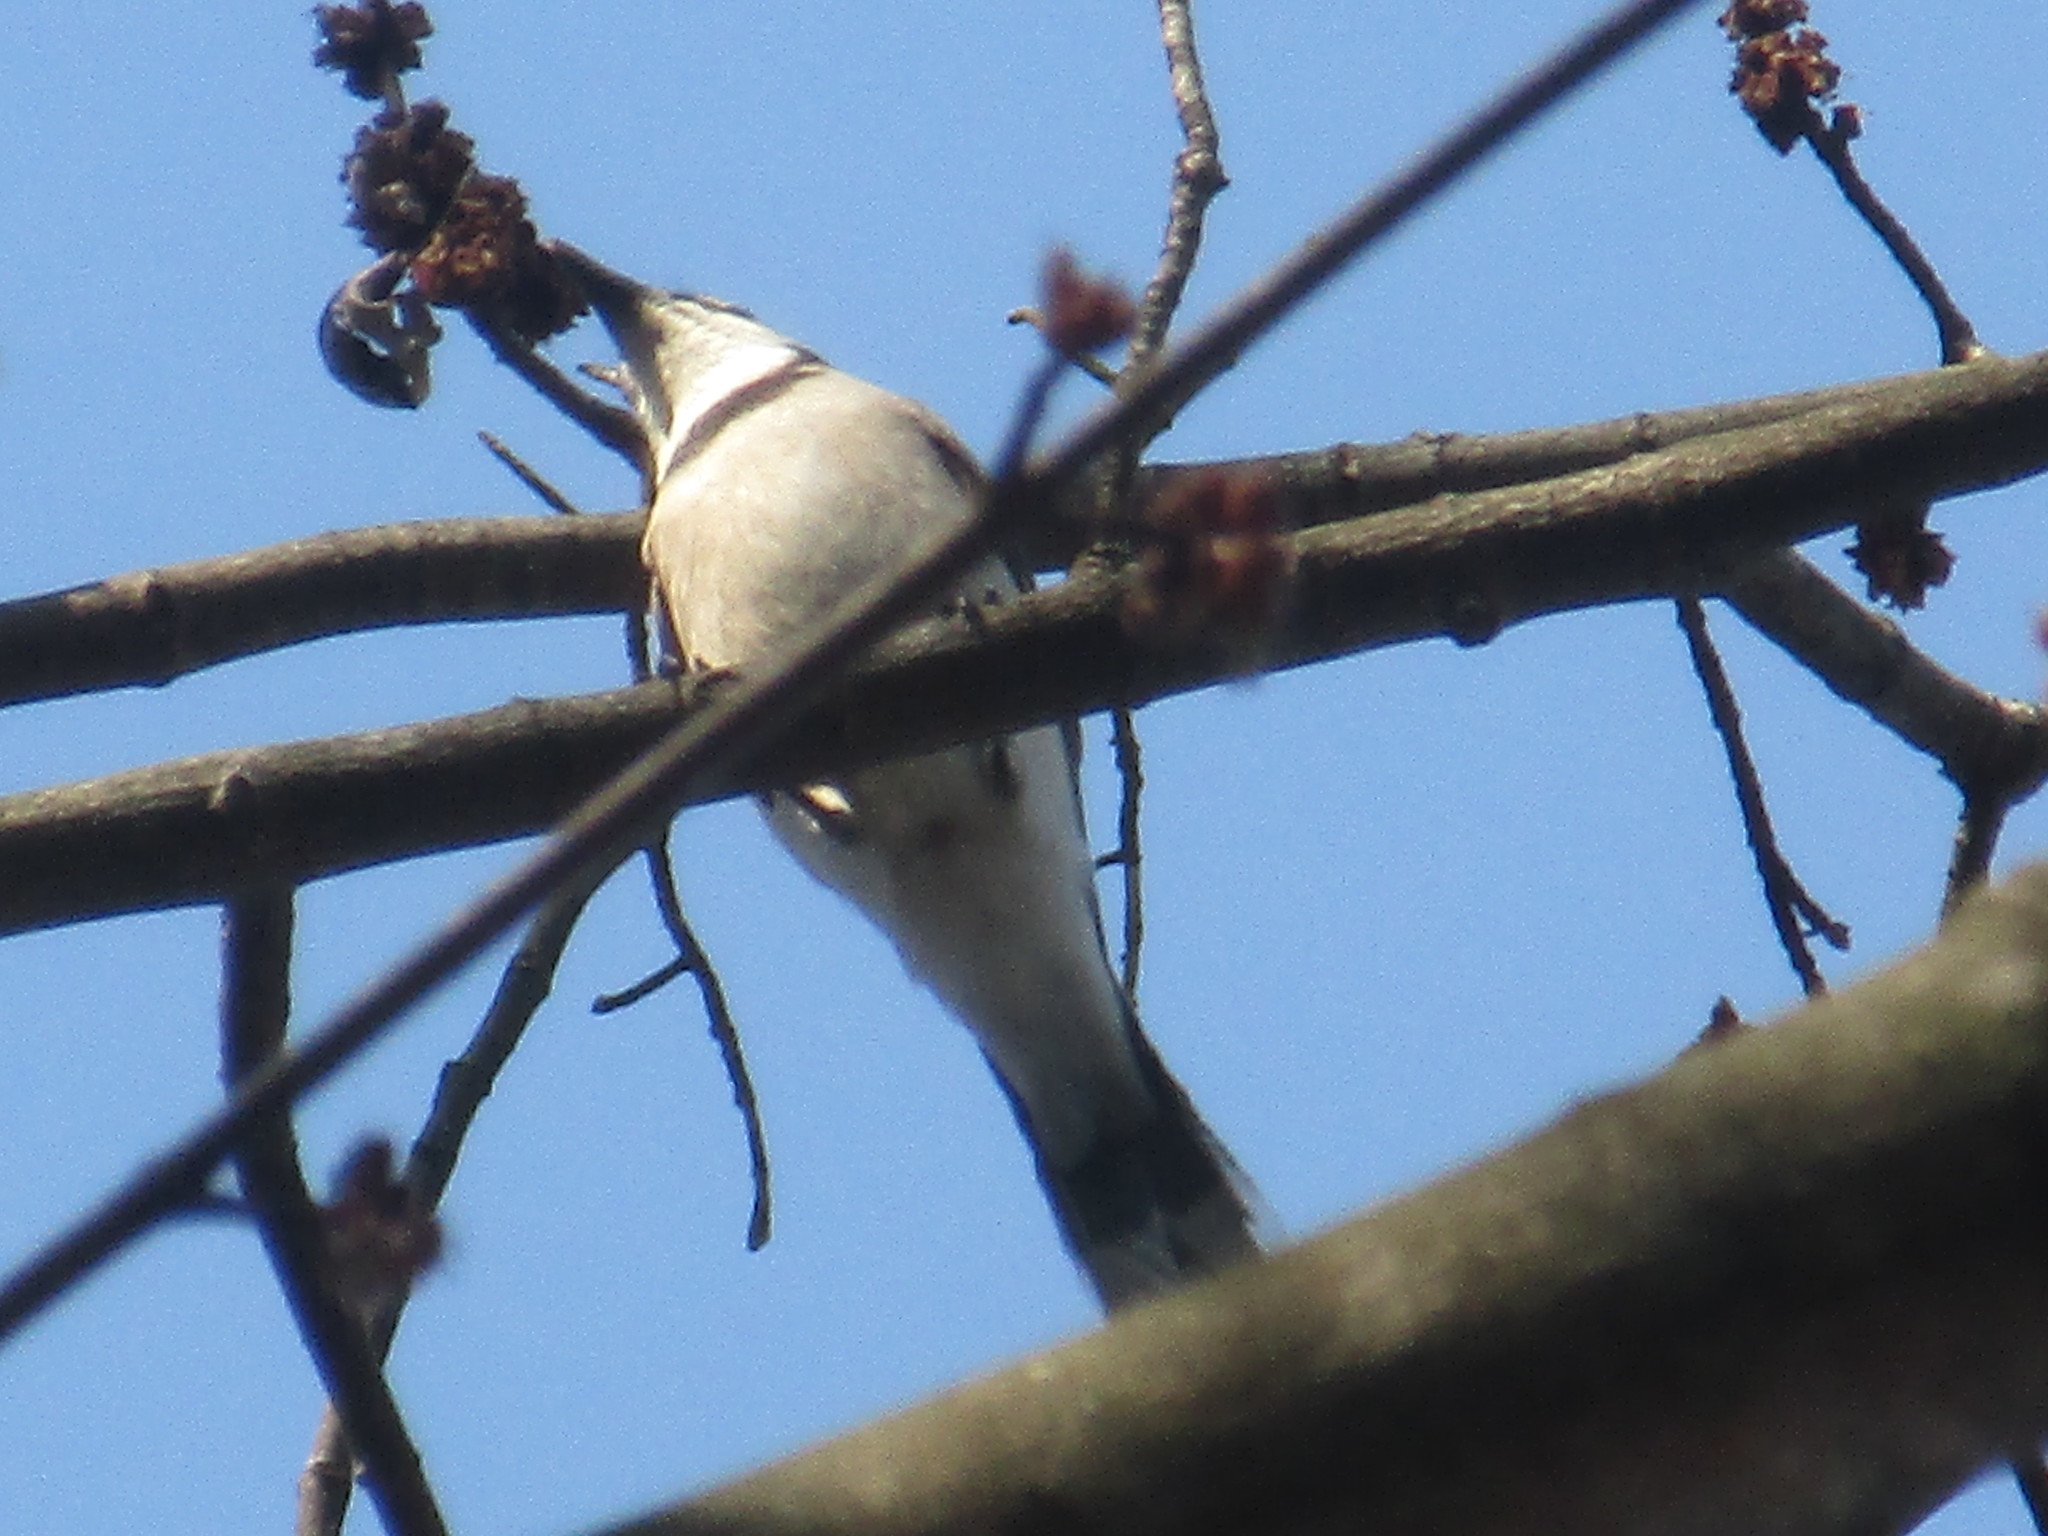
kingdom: Animalia
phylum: Chordata
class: Aves
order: Passeriformes
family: Corvidae
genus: Cyanocitta
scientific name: Cyanocitta cristata
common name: Blue jay
